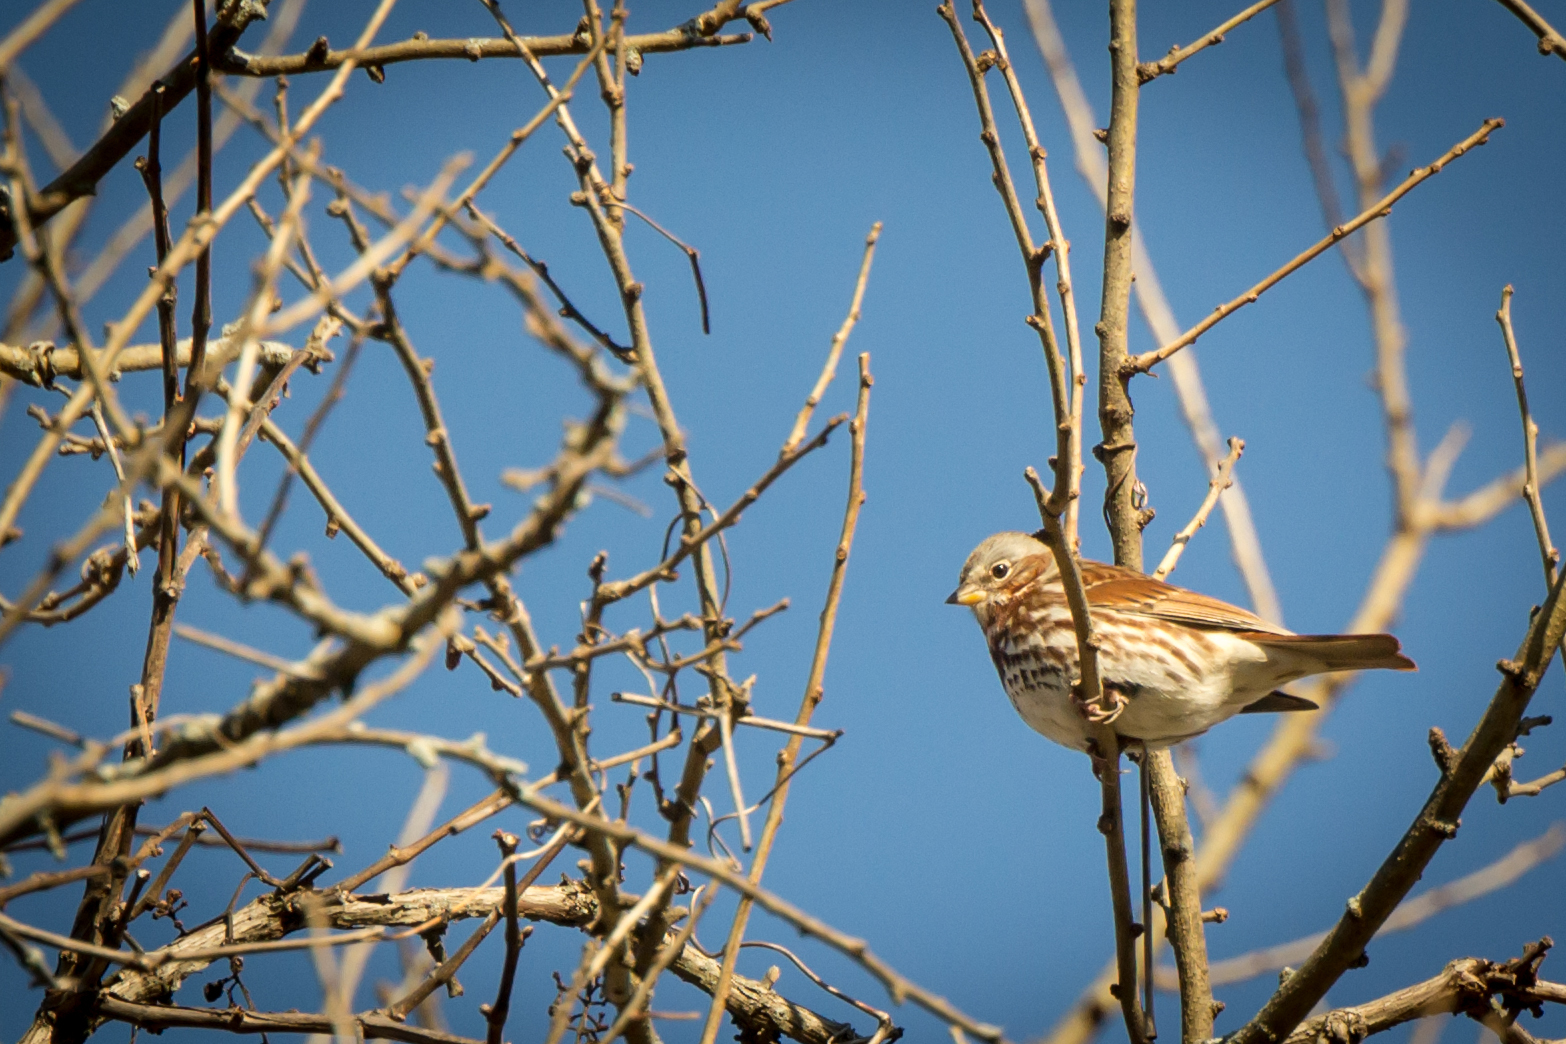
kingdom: Animalia
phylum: Chordata
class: Aves
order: Passeriformes
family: Passerellidae
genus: Passerella
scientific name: Passerella iliaca
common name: Fox sparrow
